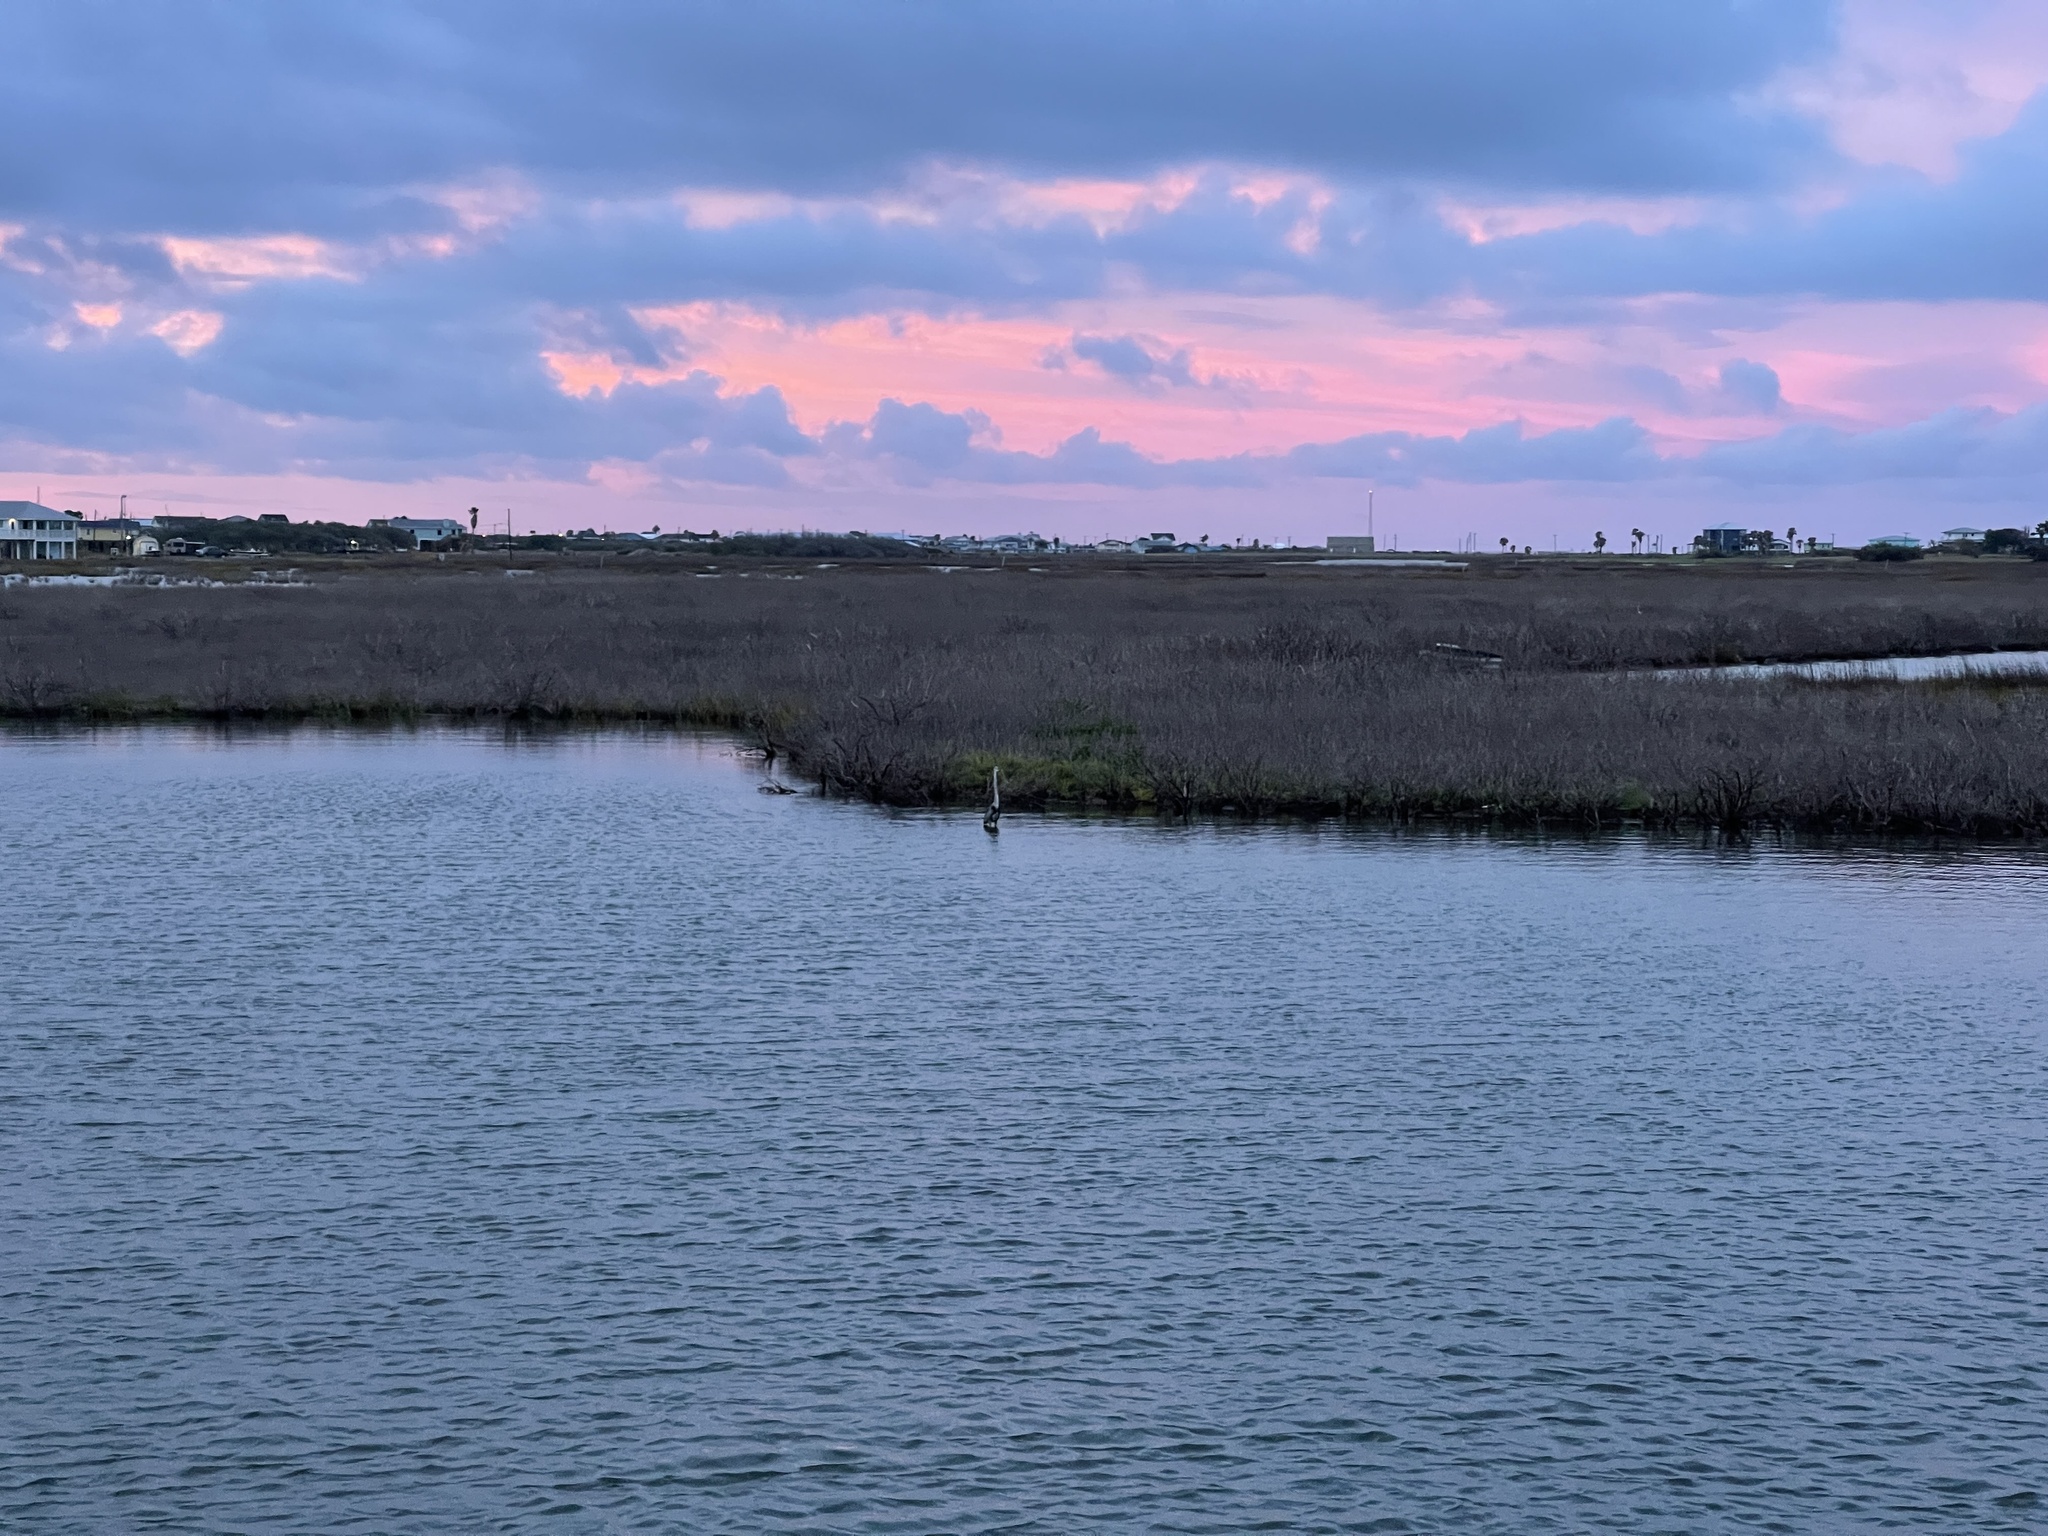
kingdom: Animalia
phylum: Chordata
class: Aves
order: Pelecaniformes
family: Ardeidae
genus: Ardea
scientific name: Ardea herodias
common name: Great blue heron
